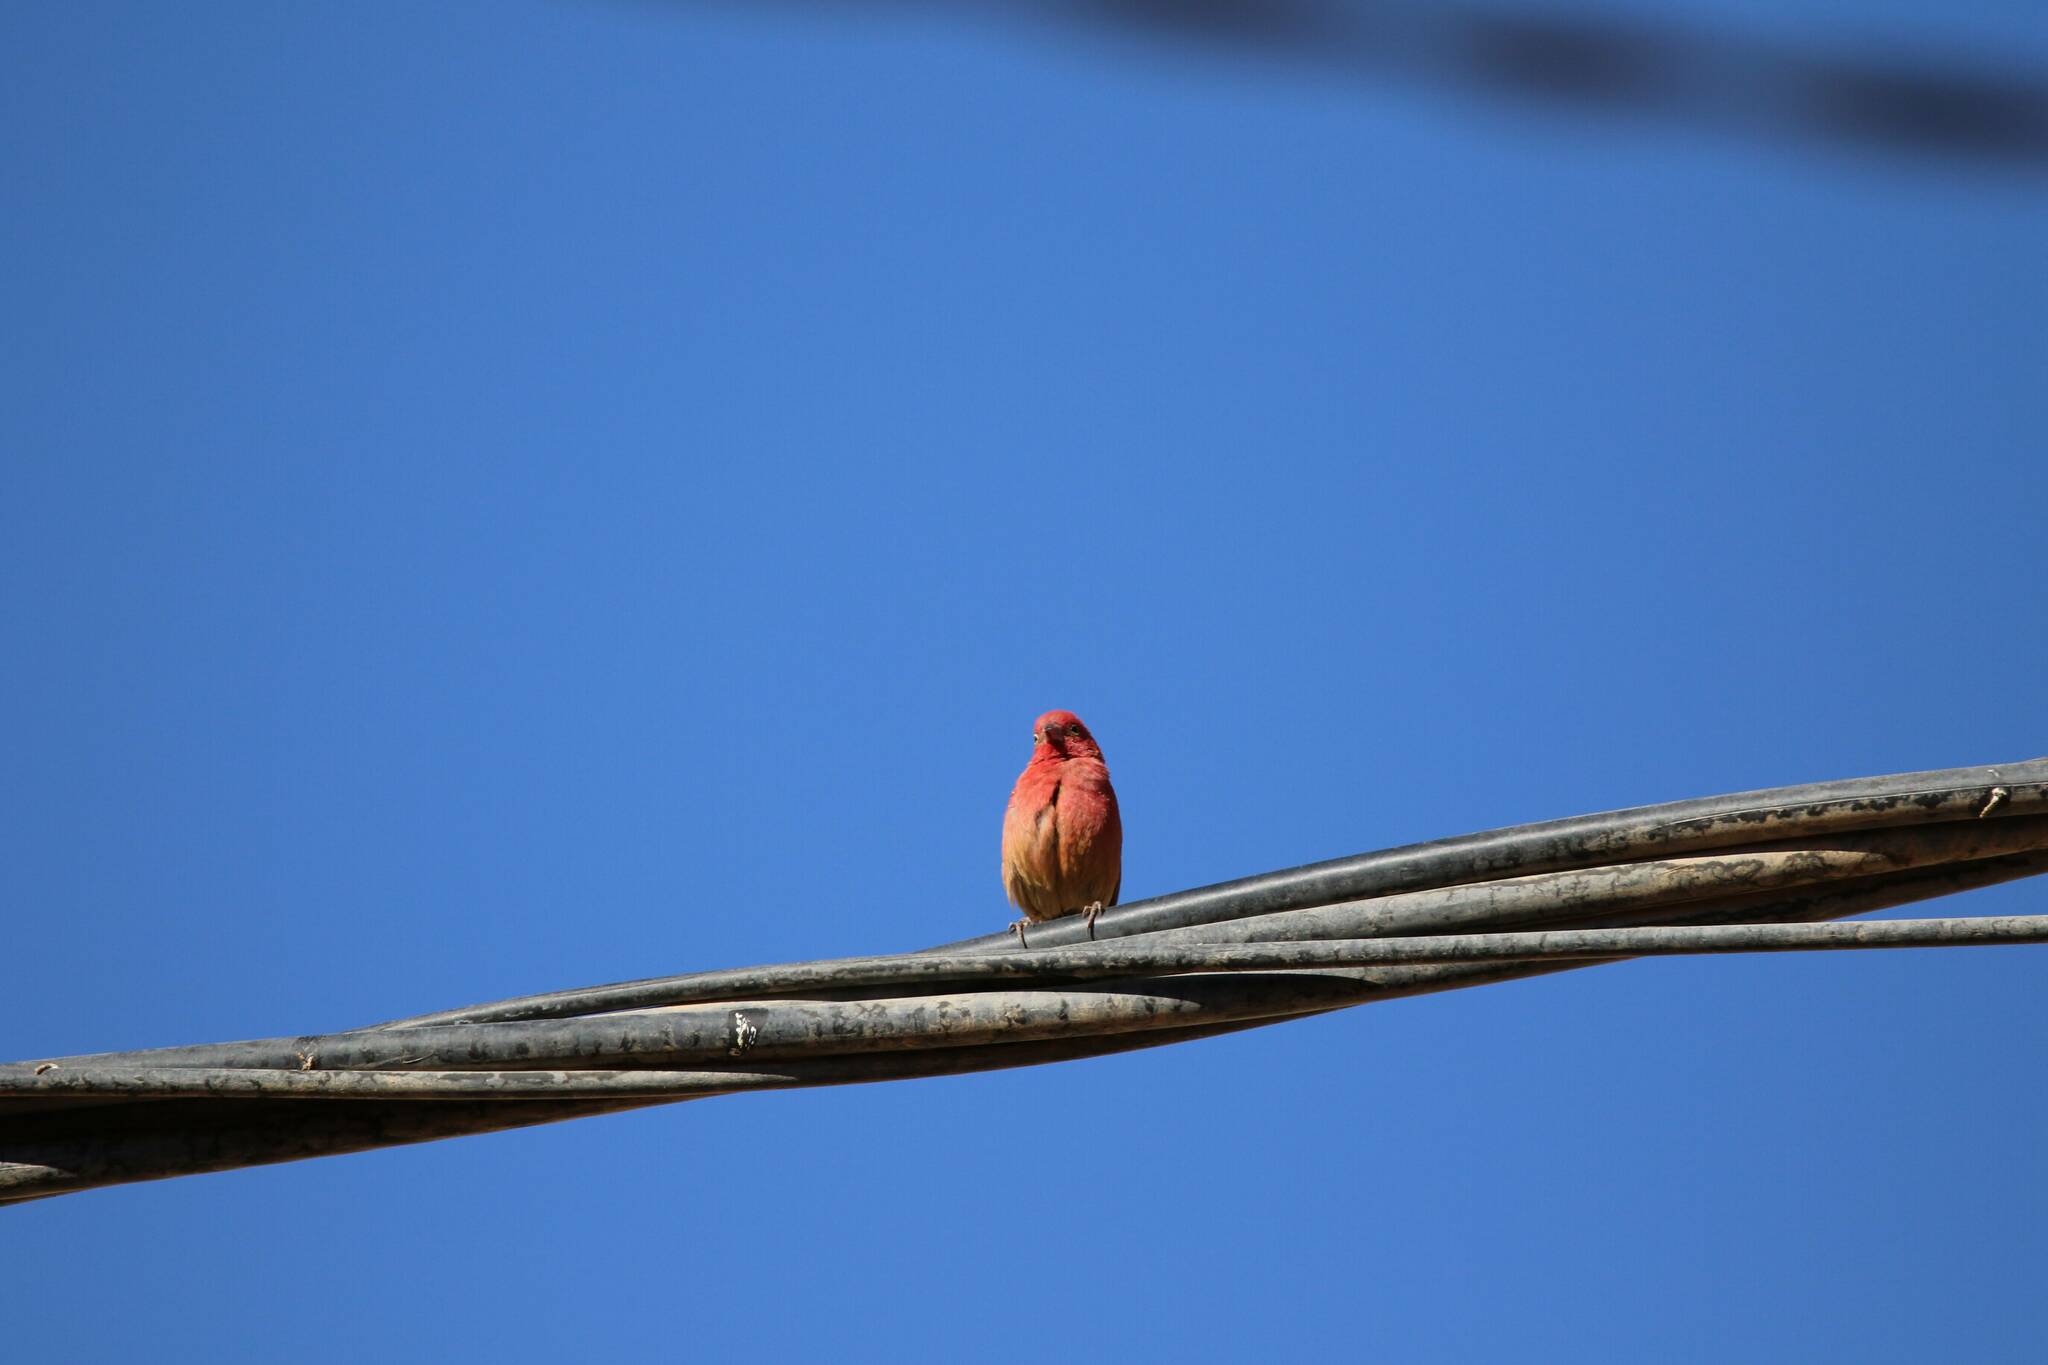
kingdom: Animalia
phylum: Chordata
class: Aves
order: Passeriformes
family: Estrildidae
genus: Lagonosticta
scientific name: Lagonosticta senegala
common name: Red-billed firefinch
